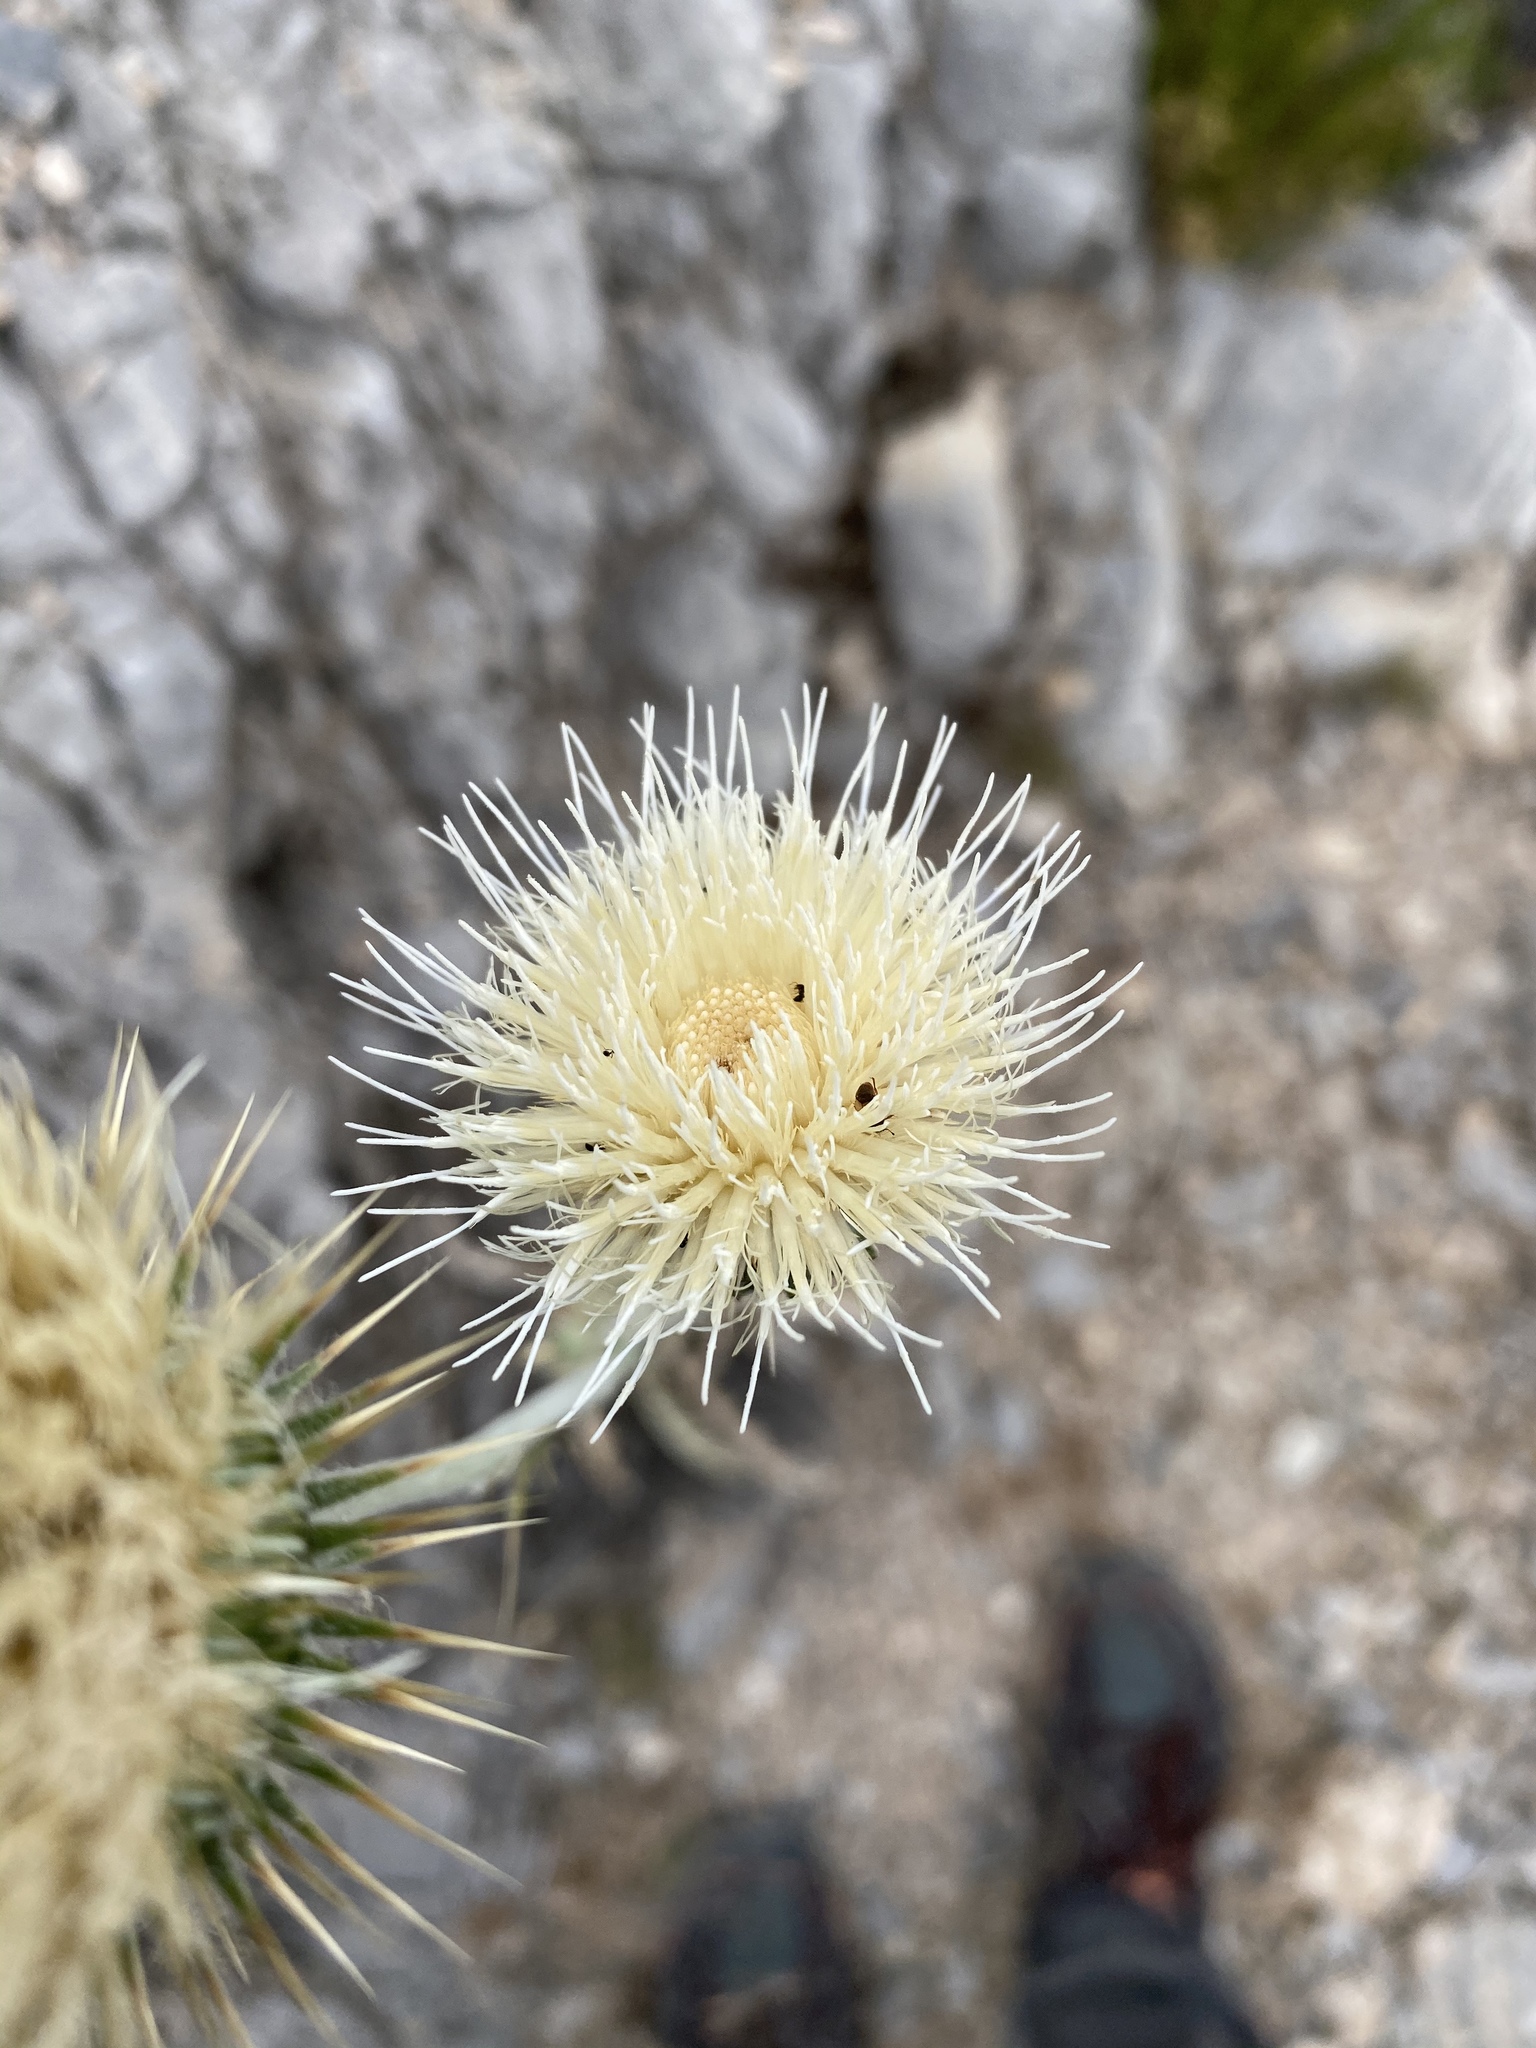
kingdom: Plantae
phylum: Tracheophyta
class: Magnoliopsida
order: Asterales
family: Asteraceae
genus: Cirsium
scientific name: Cirsium neomexicanum
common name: New mexico thistle
